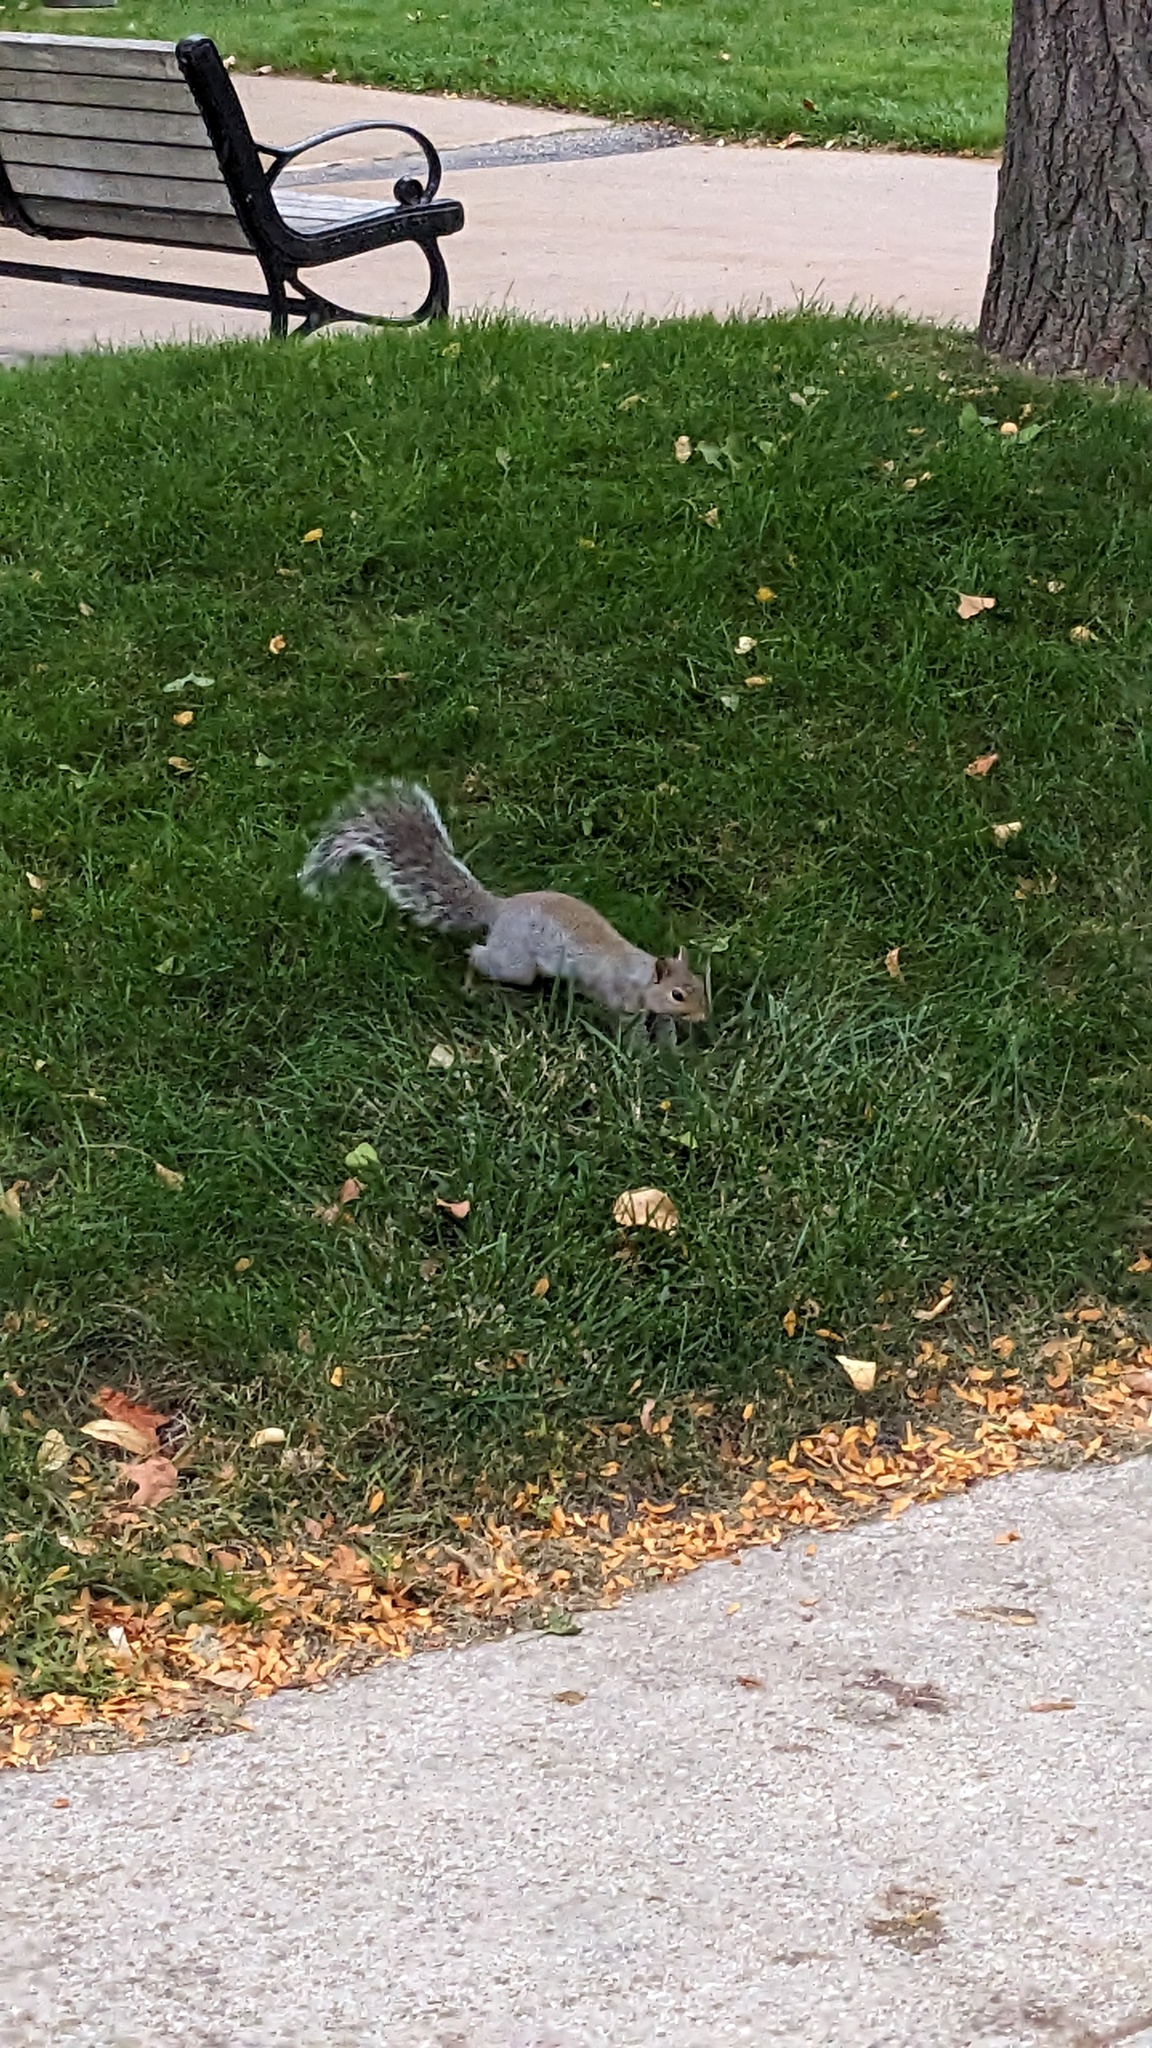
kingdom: Animalia
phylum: Chordata
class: Mammalia
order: Rodentia
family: Sciuridae
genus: Sciurus
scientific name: Sciurus carolinensis
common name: Eastern gray squirrel
